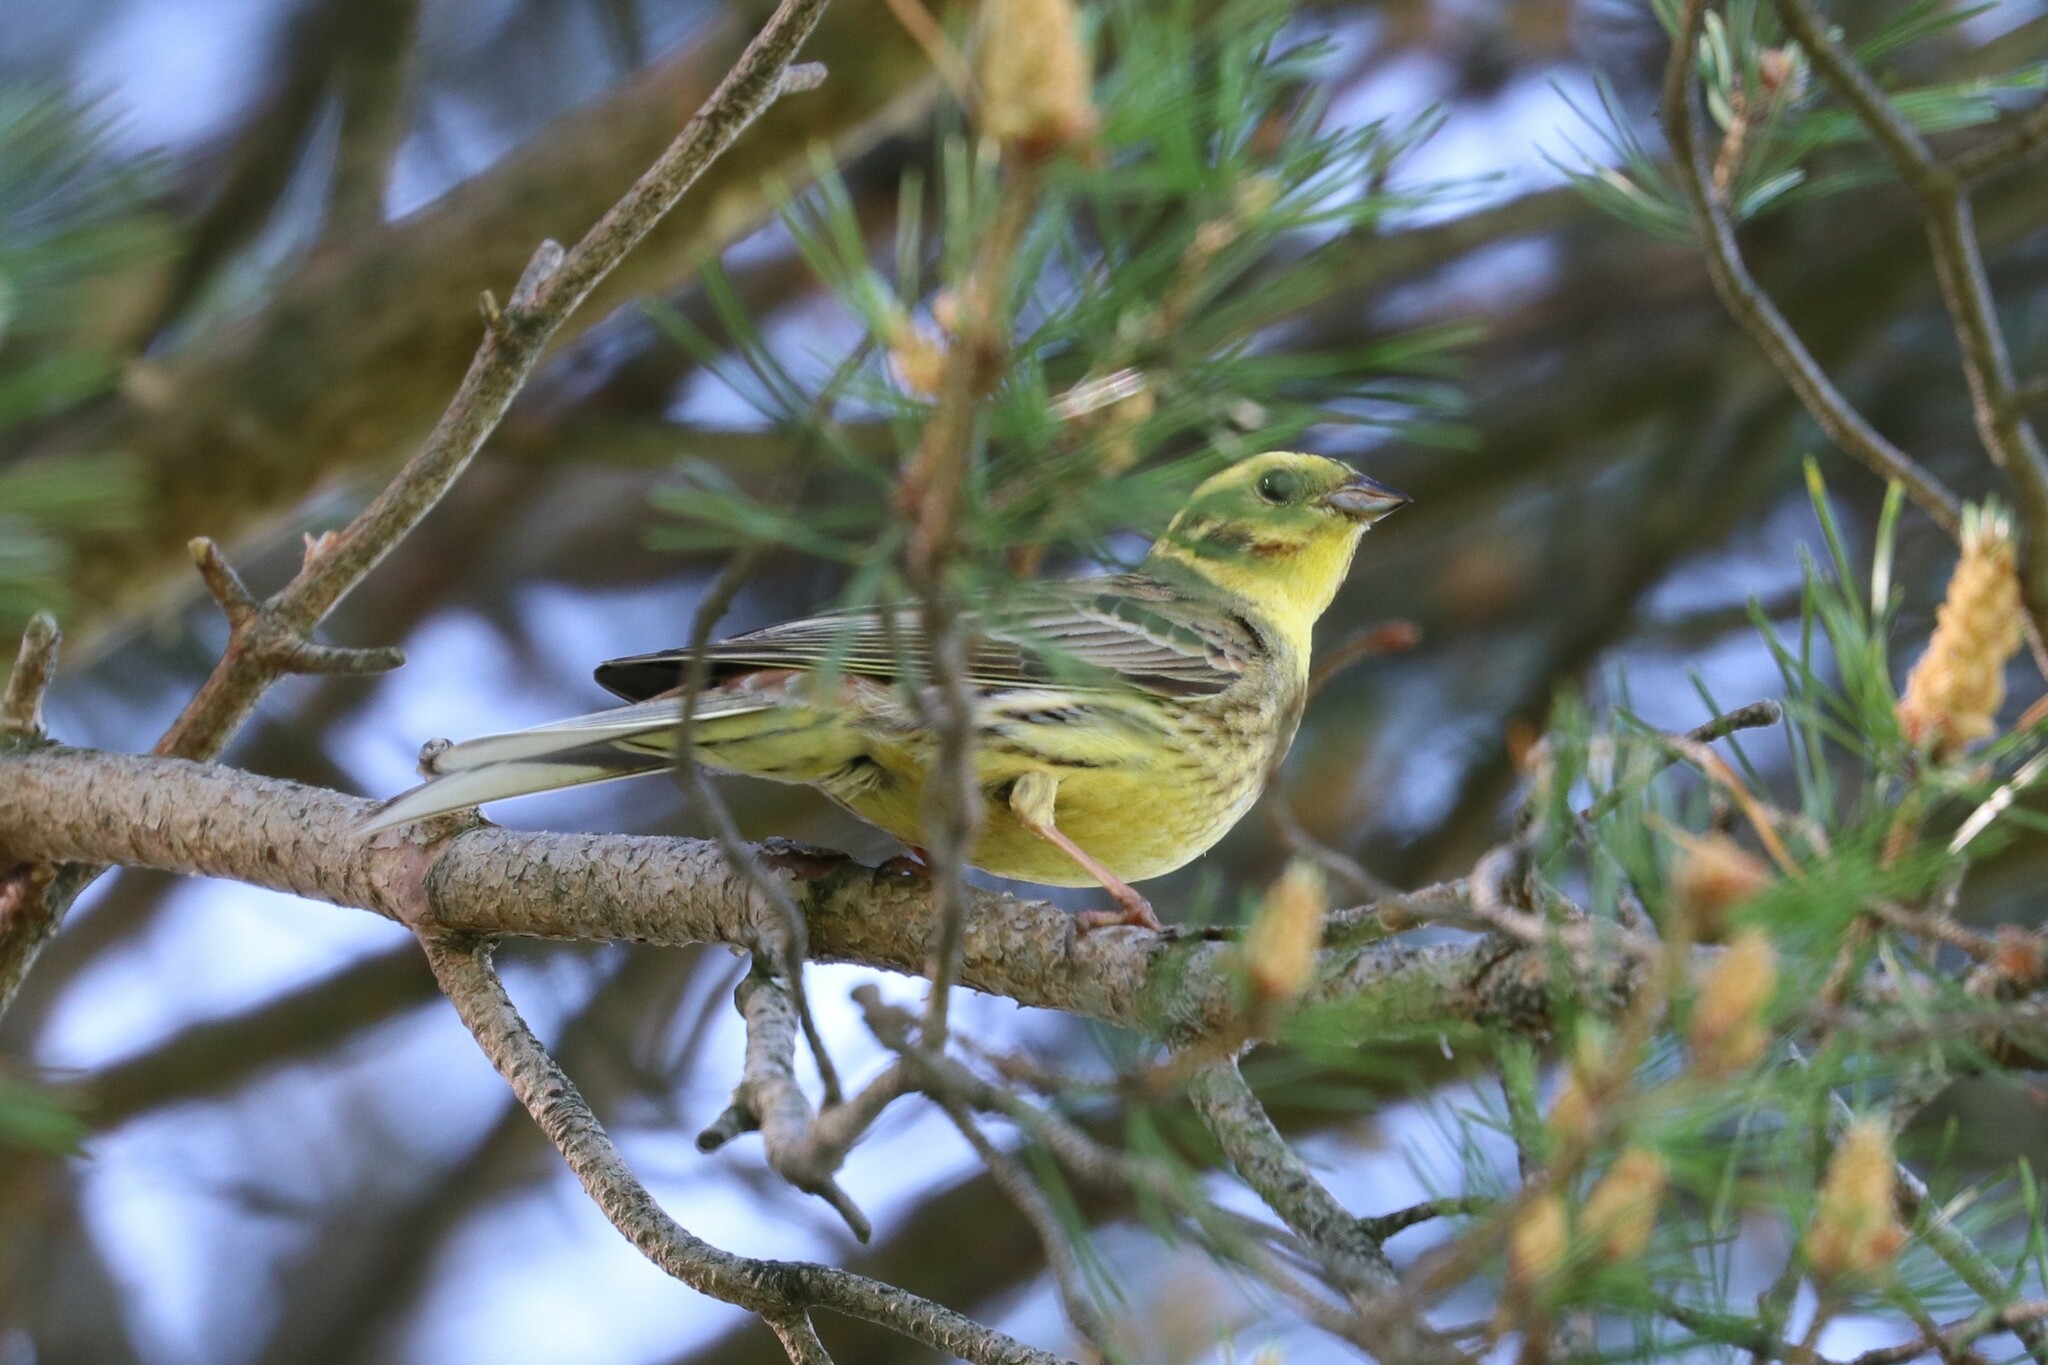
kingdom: Animalia
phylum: Chordata
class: Aves
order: Passeriformes
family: Emberizidae
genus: Emberiza
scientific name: Emberiza citrinella
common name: Yellowhammer
